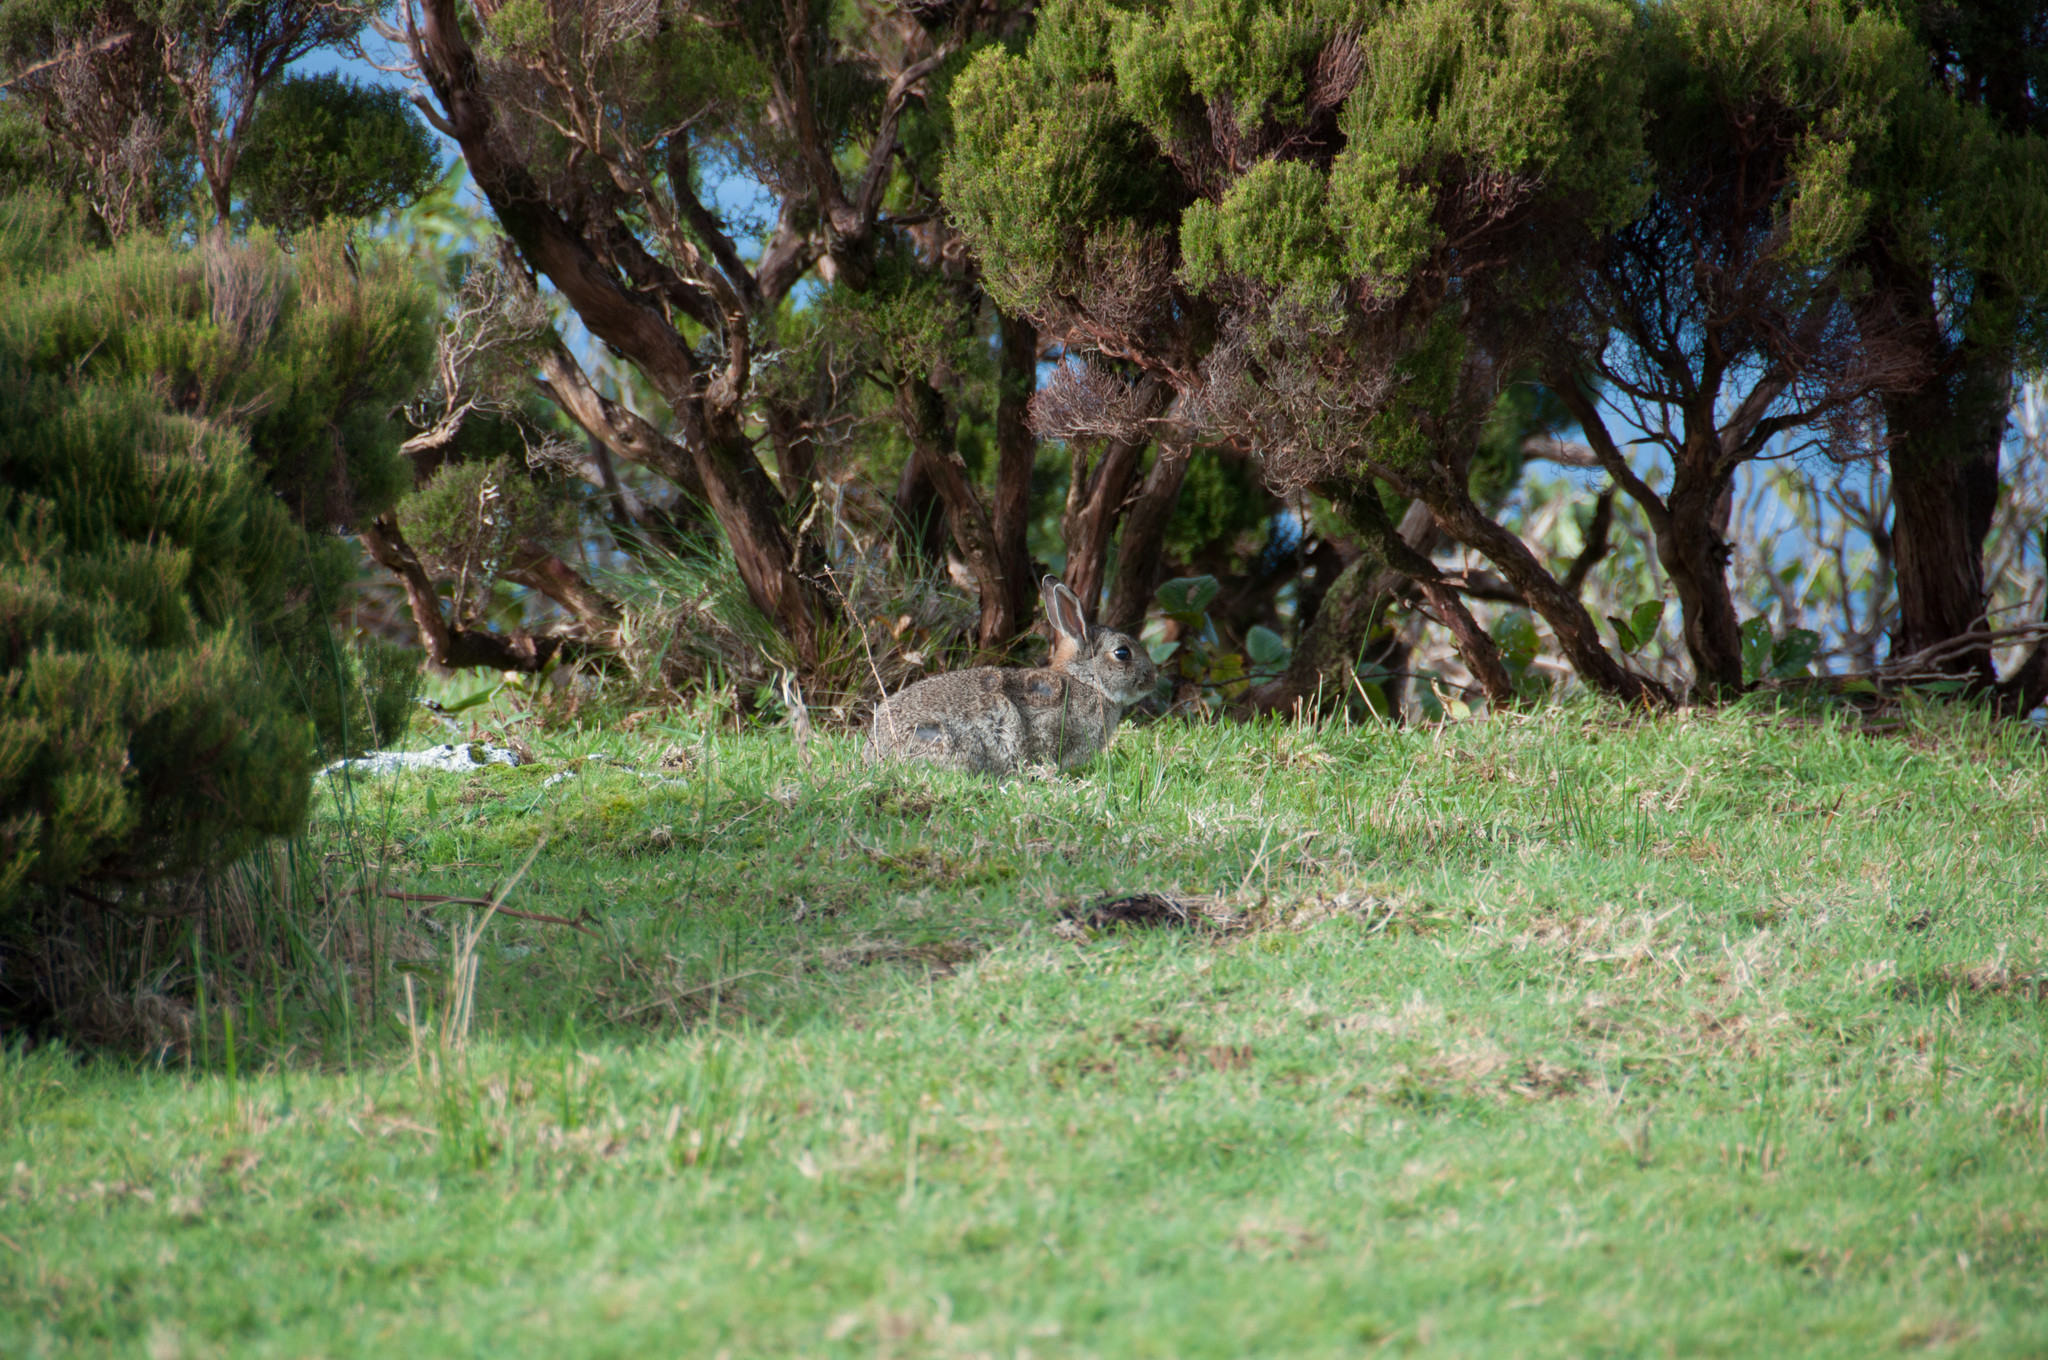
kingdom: Animalia
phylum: Chordata
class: Mammalia
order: Lagomorpha
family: Leporidae
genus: Oryctolagus
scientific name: Oryctolagus cuniculus
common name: European rabbit
